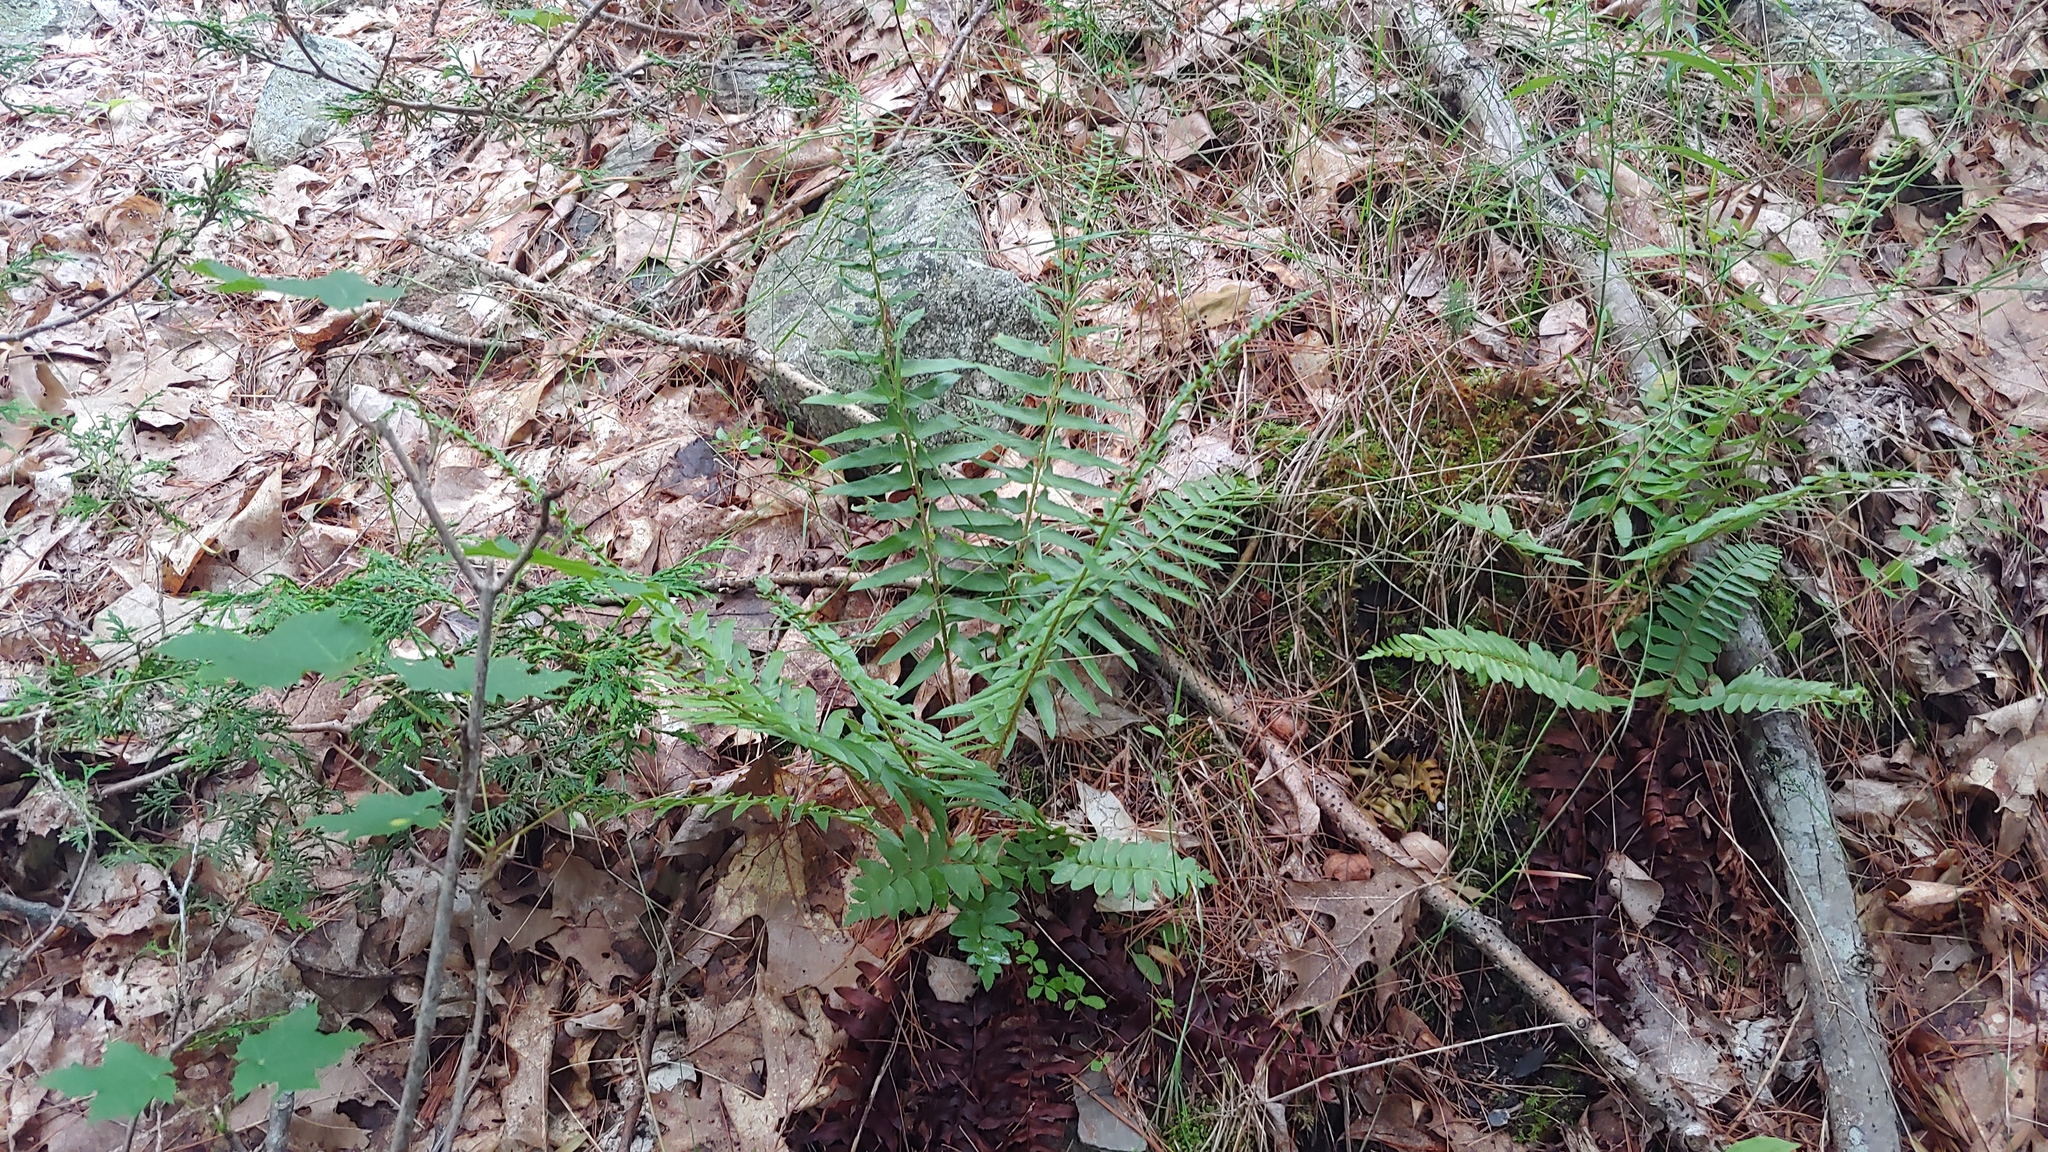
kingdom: Plantae
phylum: Tracheophyta
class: Polypodiopsida
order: Polypodiales
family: Dryopteridaceae
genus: Polystichum
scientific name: Polystichum acrostichoides
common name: Christmas fern
